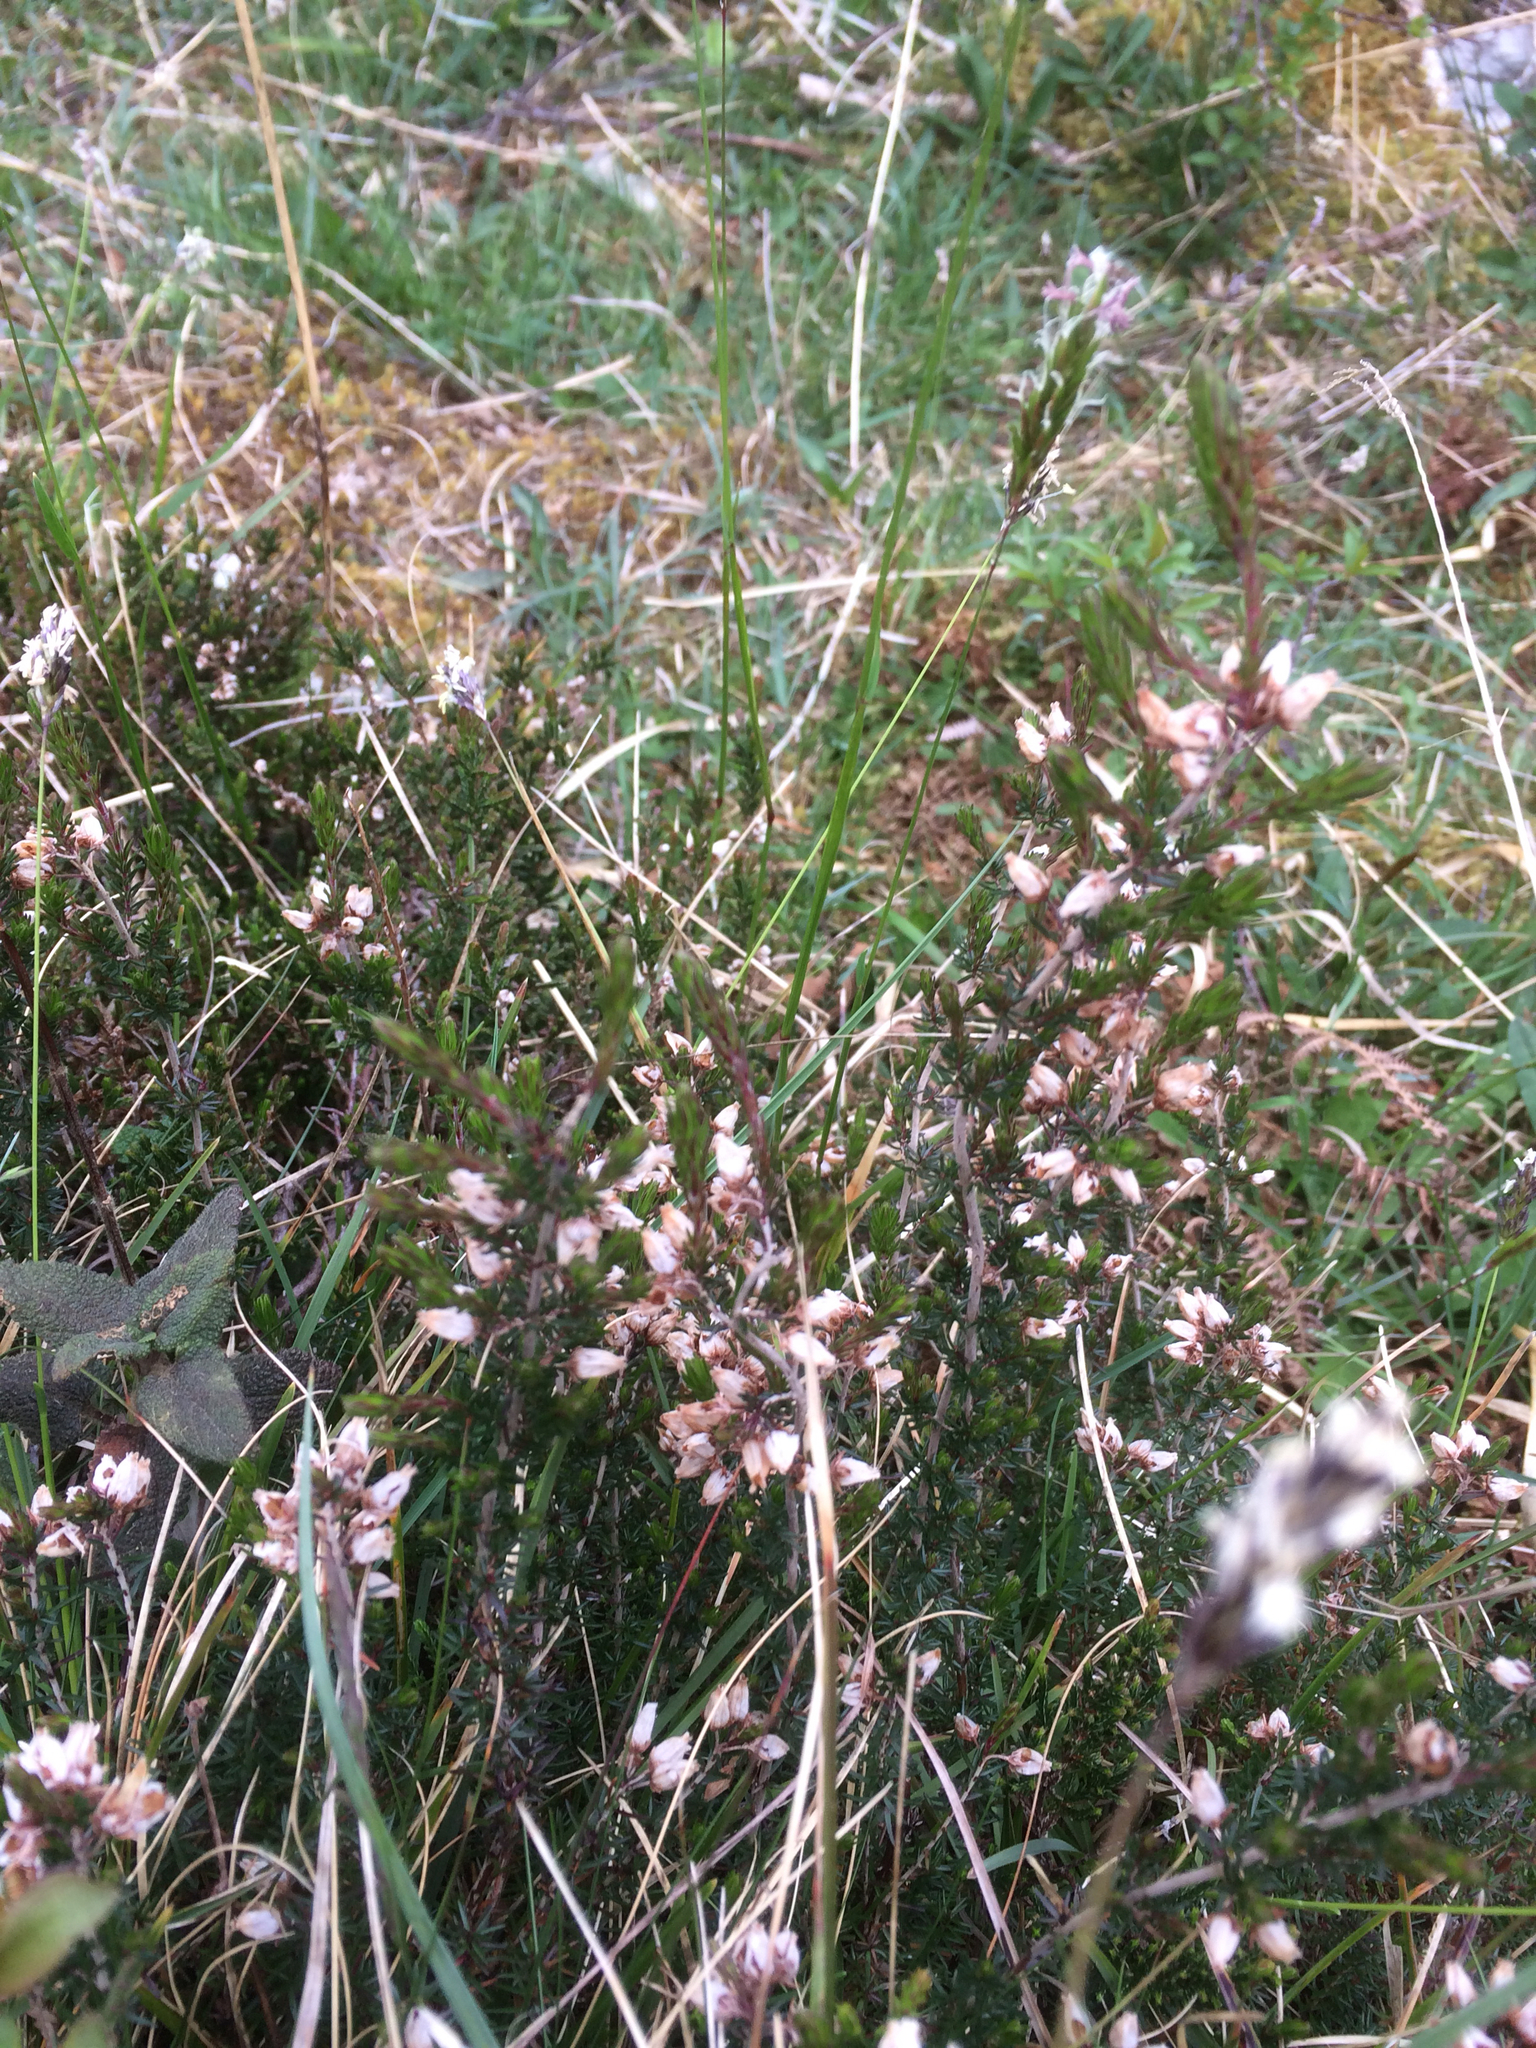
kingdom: Plantae
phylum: Tracheophyta
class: Magnoliopsida
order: Ericales
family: Ericaceae
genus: Calluna
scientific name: Calluna vulgaris
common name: Heather
